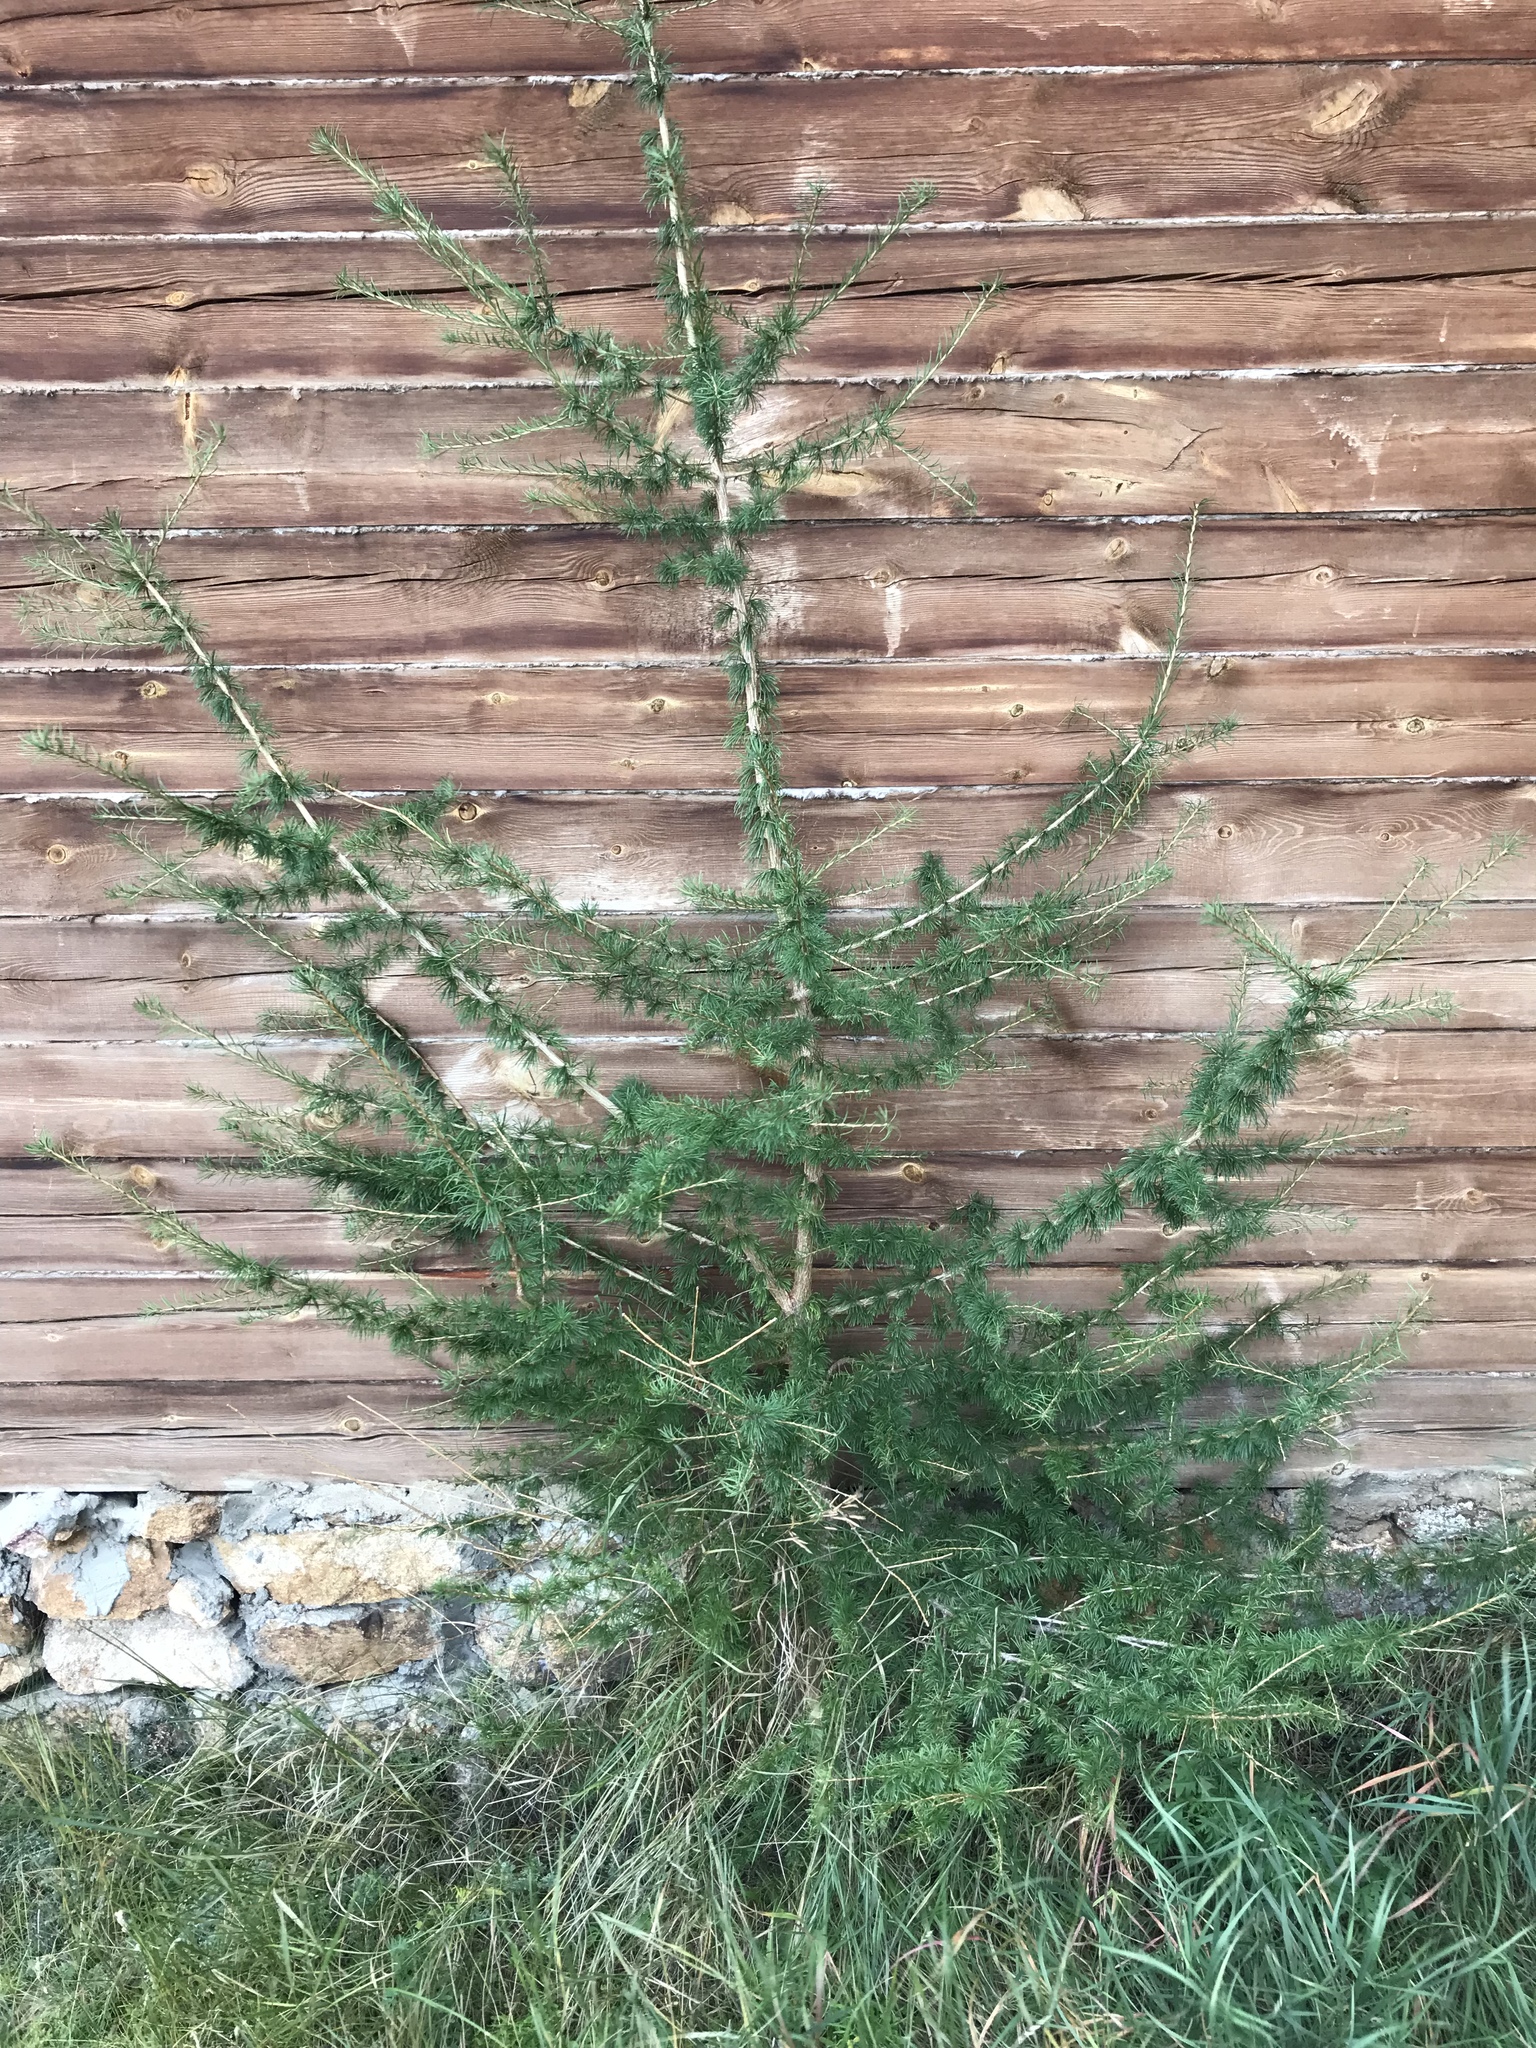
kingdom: Plantae
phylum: Tracheophyta
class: Pinopsida
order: Pinales
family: Pinaceae
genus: Larix
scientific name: Larix sibirica
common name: Siberian larch
